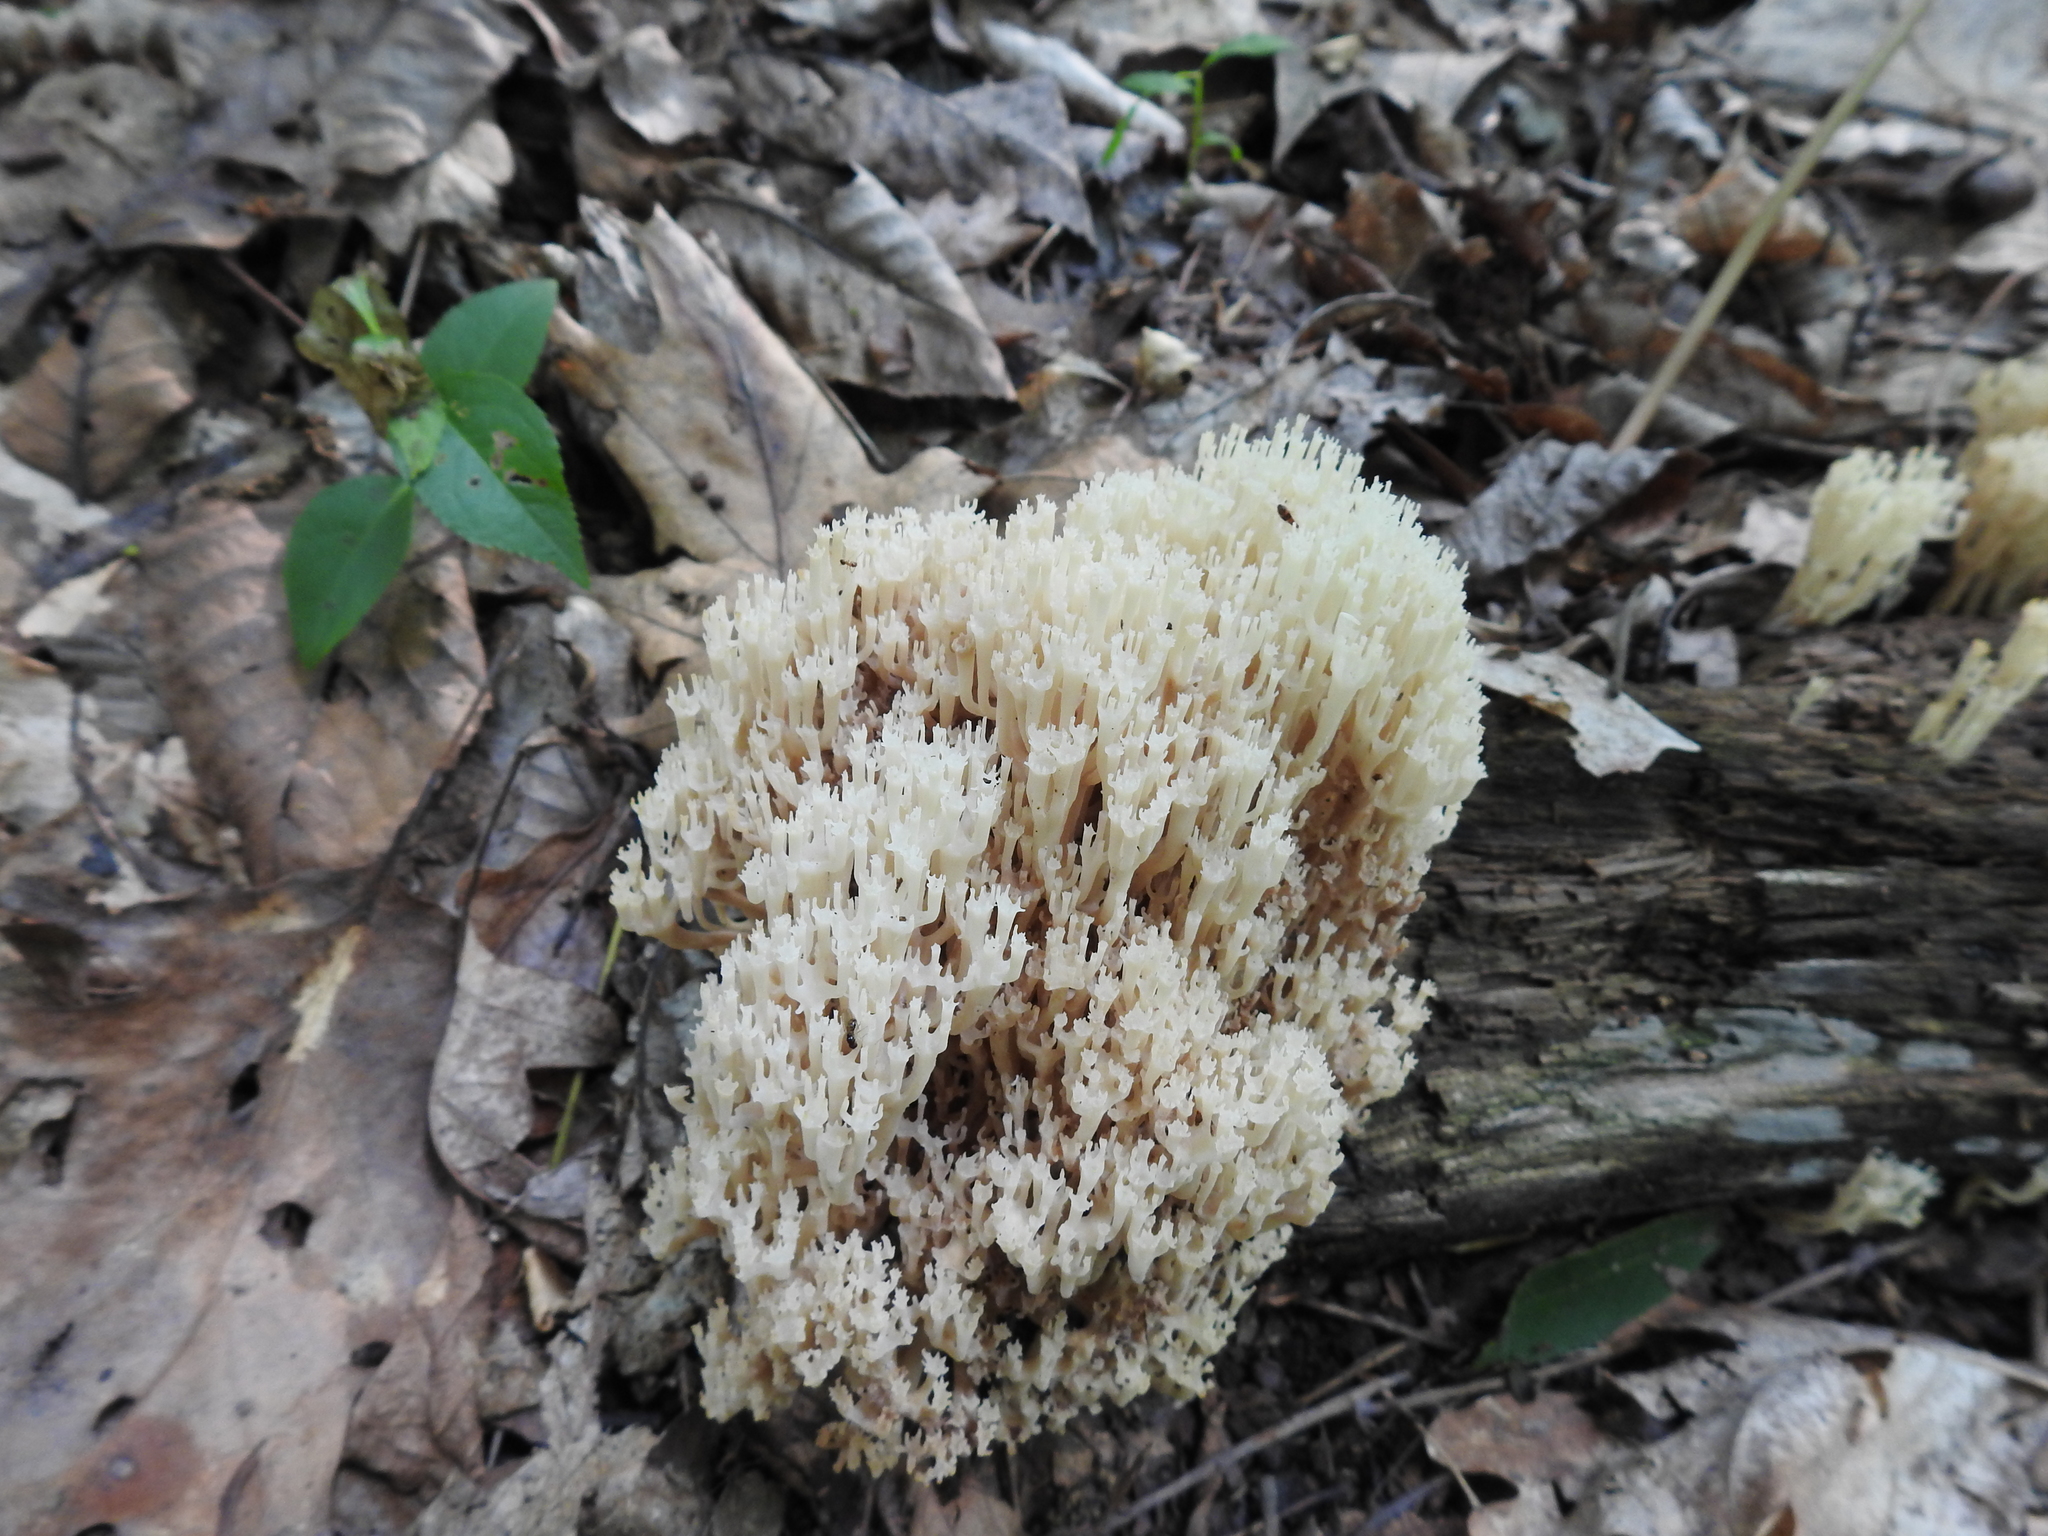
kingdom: Fungi
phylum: Basidiomycota
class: Agaricomycetes
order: Russulales
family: Auriscalpiaceae
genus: Artomyces
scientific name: Artomyces pyxidatus
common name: Crown-tipped coral fungus
